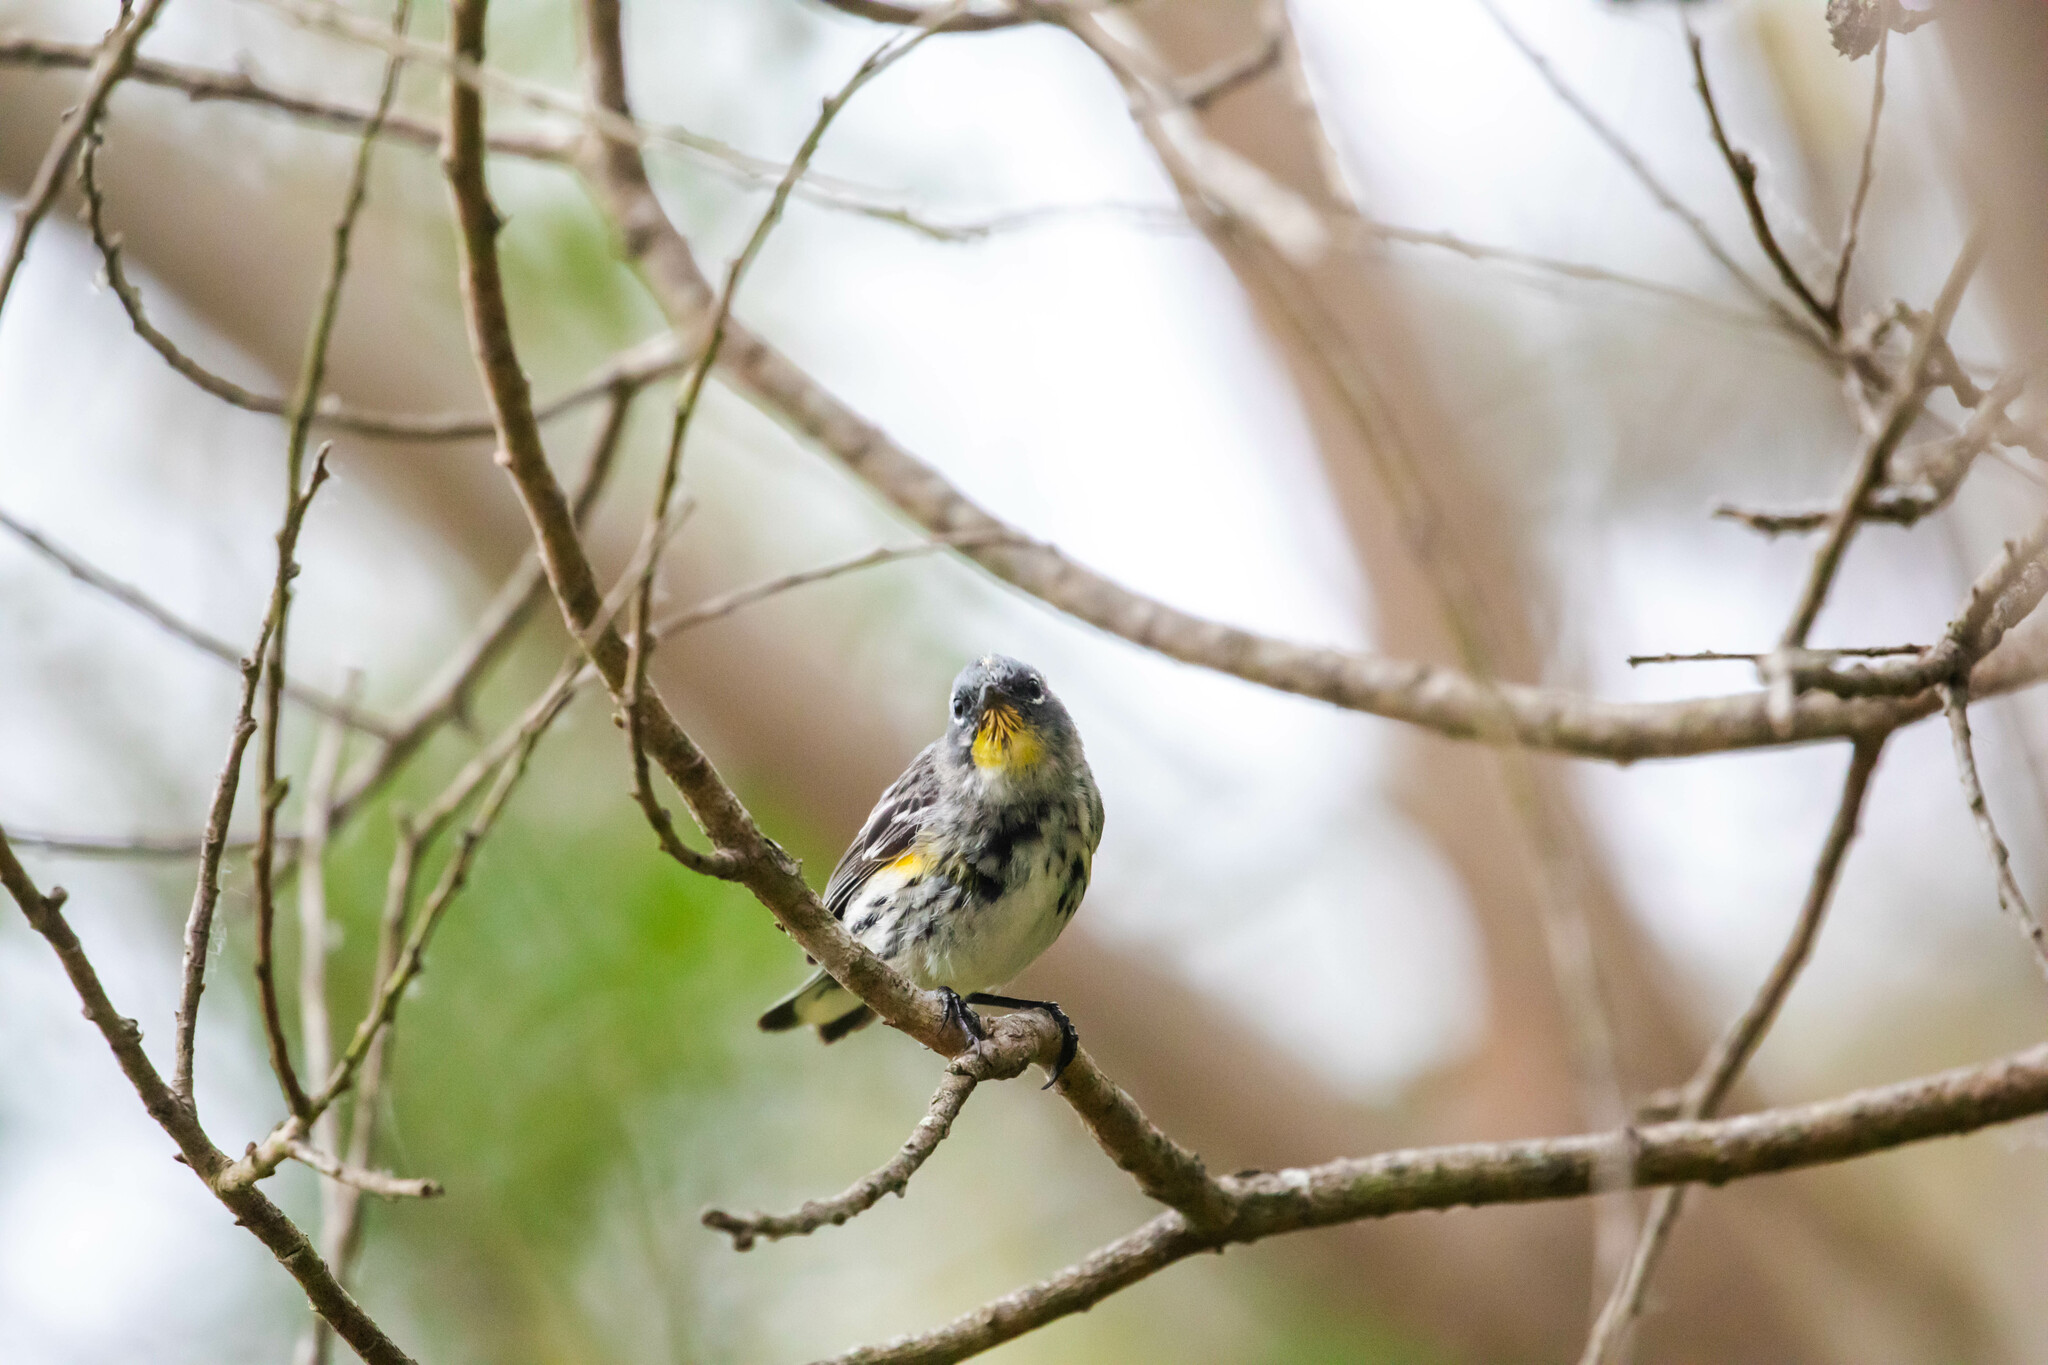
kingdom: Animalia
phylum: Chordata
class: Aves
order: Passeriformes
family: Parulidae
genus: Setophaga
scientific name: Setophaga auduboni
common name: Audubon's warbler
